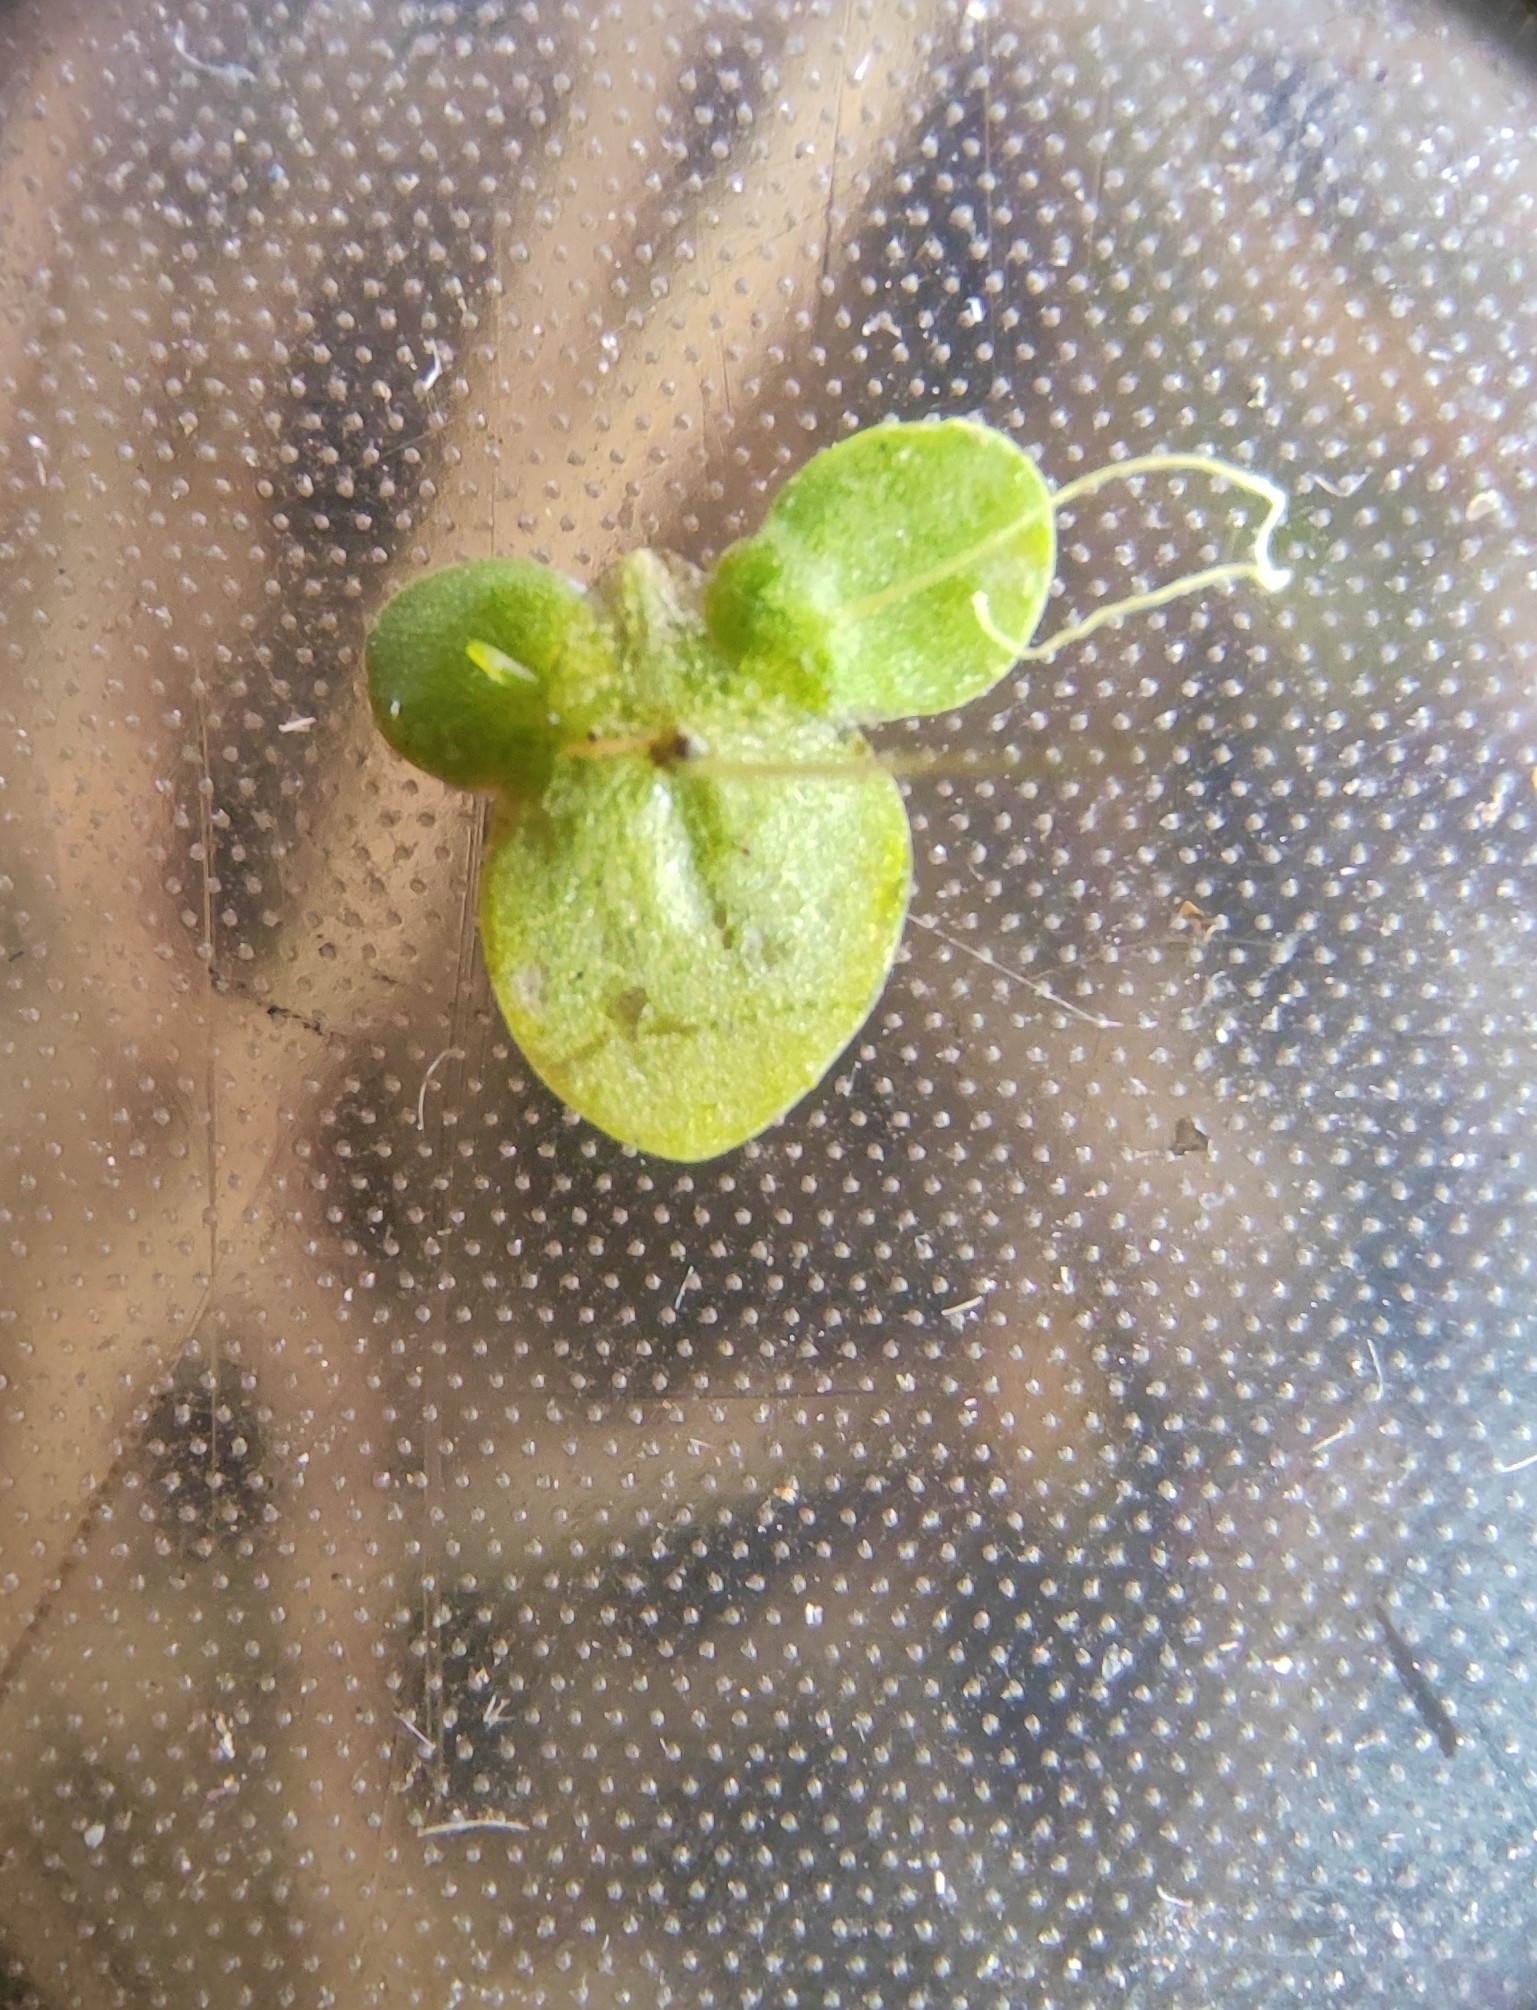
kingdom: Plantae
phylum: Tracheophyta
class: Liliopsida
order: Alismatales
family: Araceae
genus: Lemna
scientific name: Lemna minor
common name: Common duckweed
